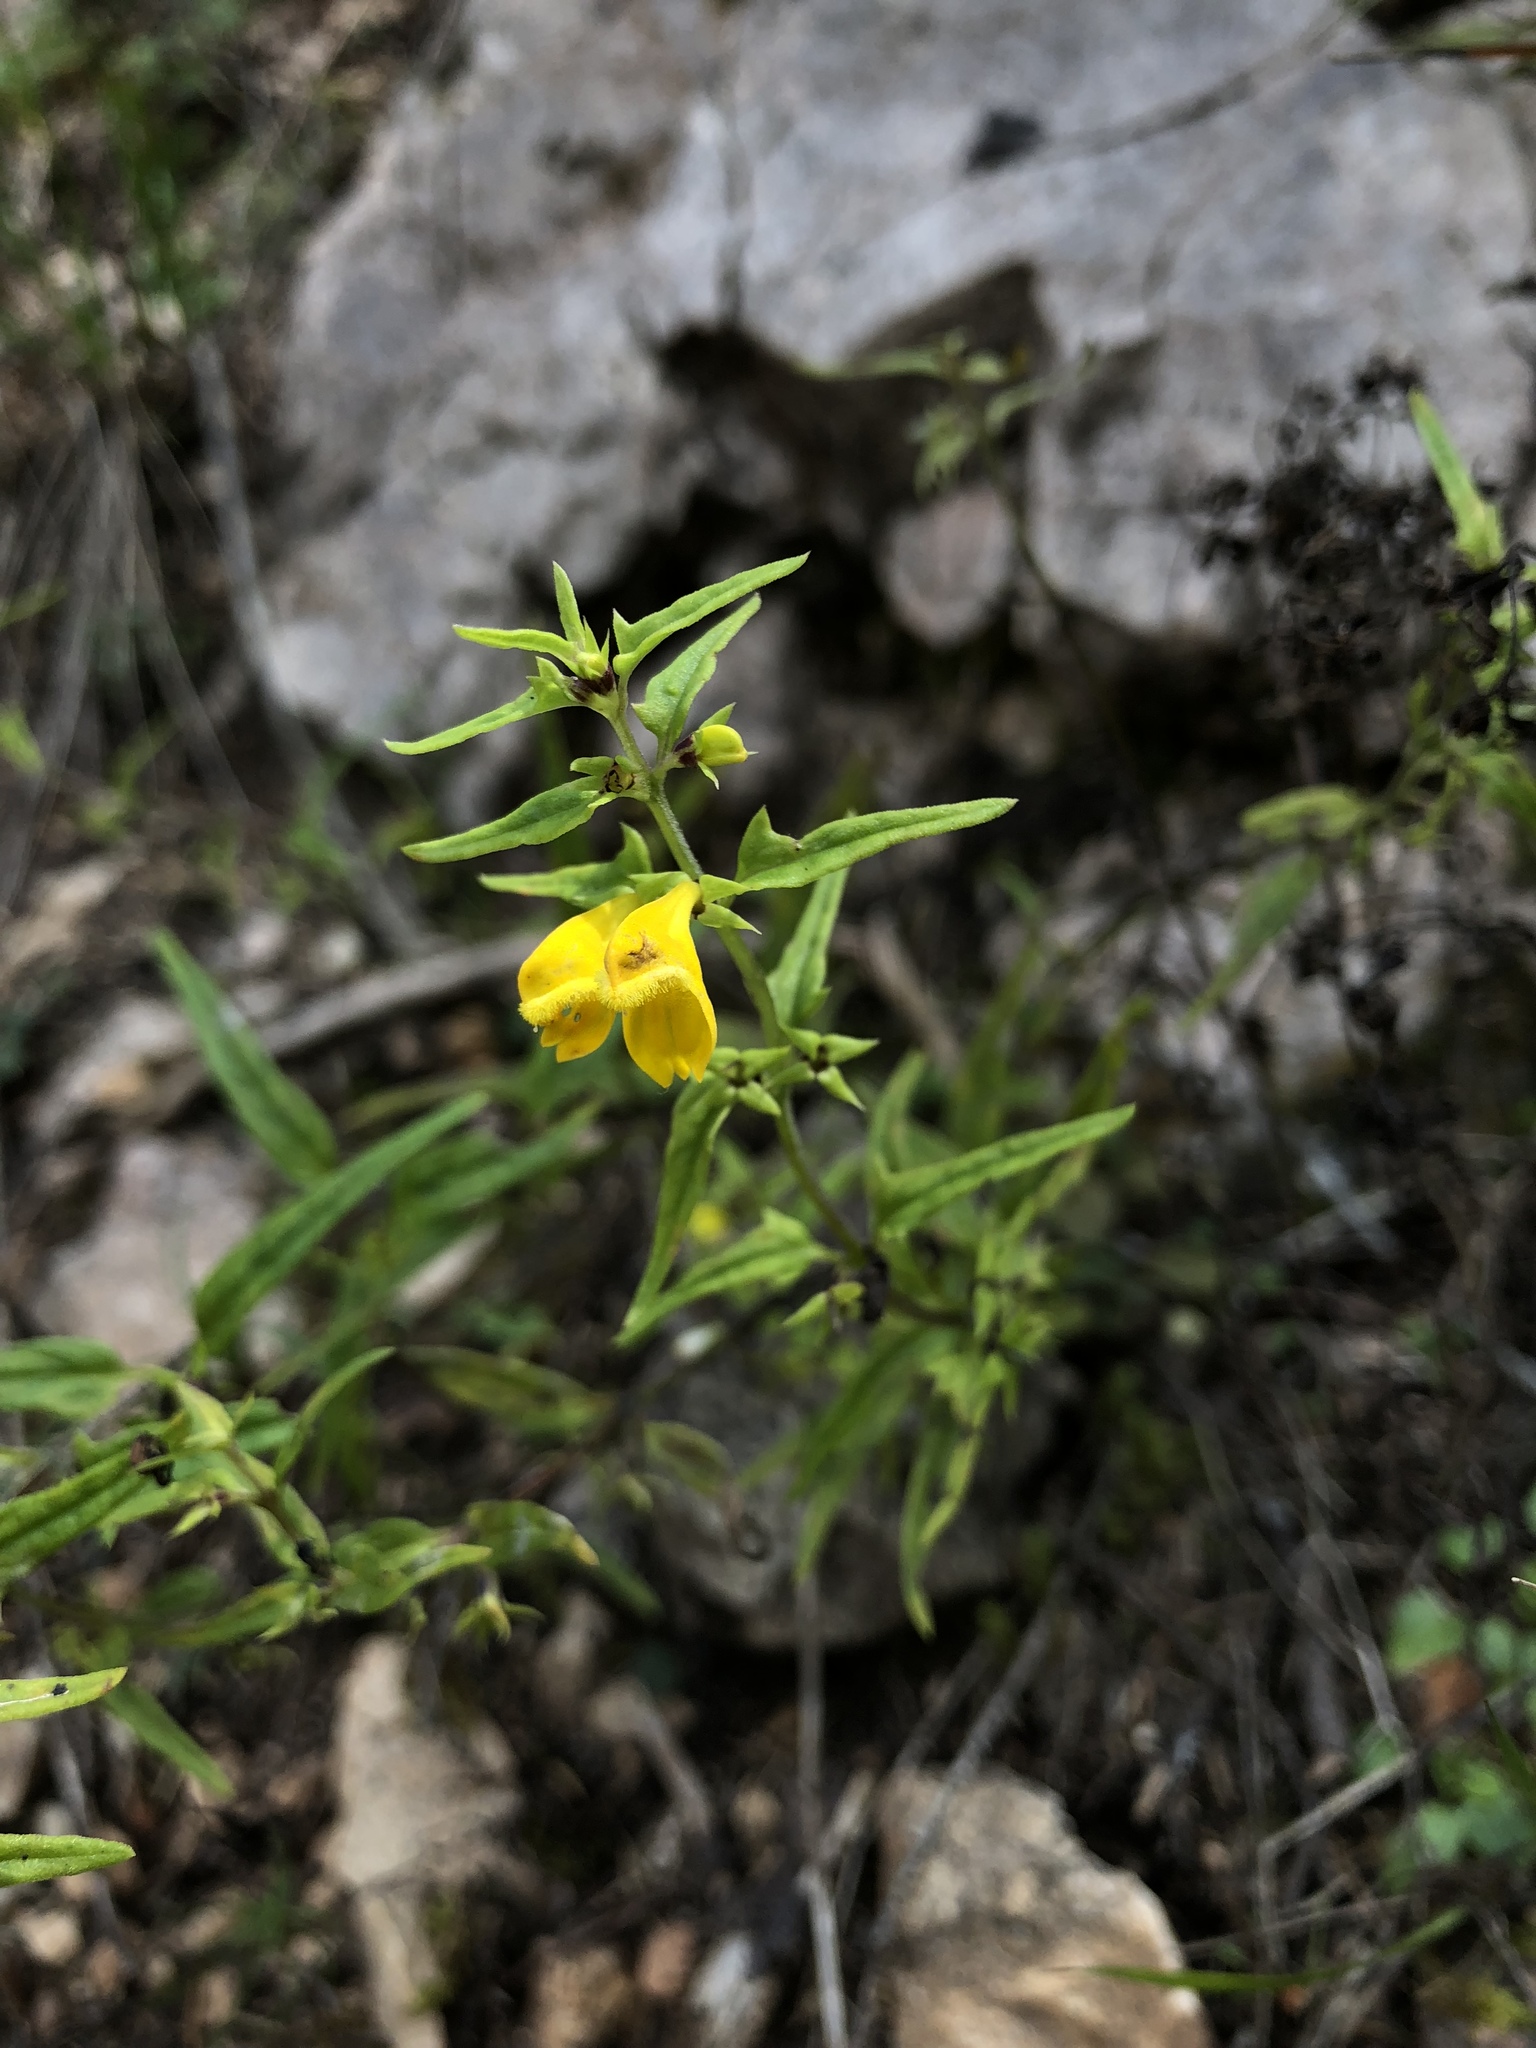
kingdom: Plantae
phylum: Tracheophyta
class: Magnoliopsida
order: Lamiales
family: Orobanchaceae
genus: Melampyrum
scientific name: Melampyrum sylvaticum
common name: Small cow-wheat
